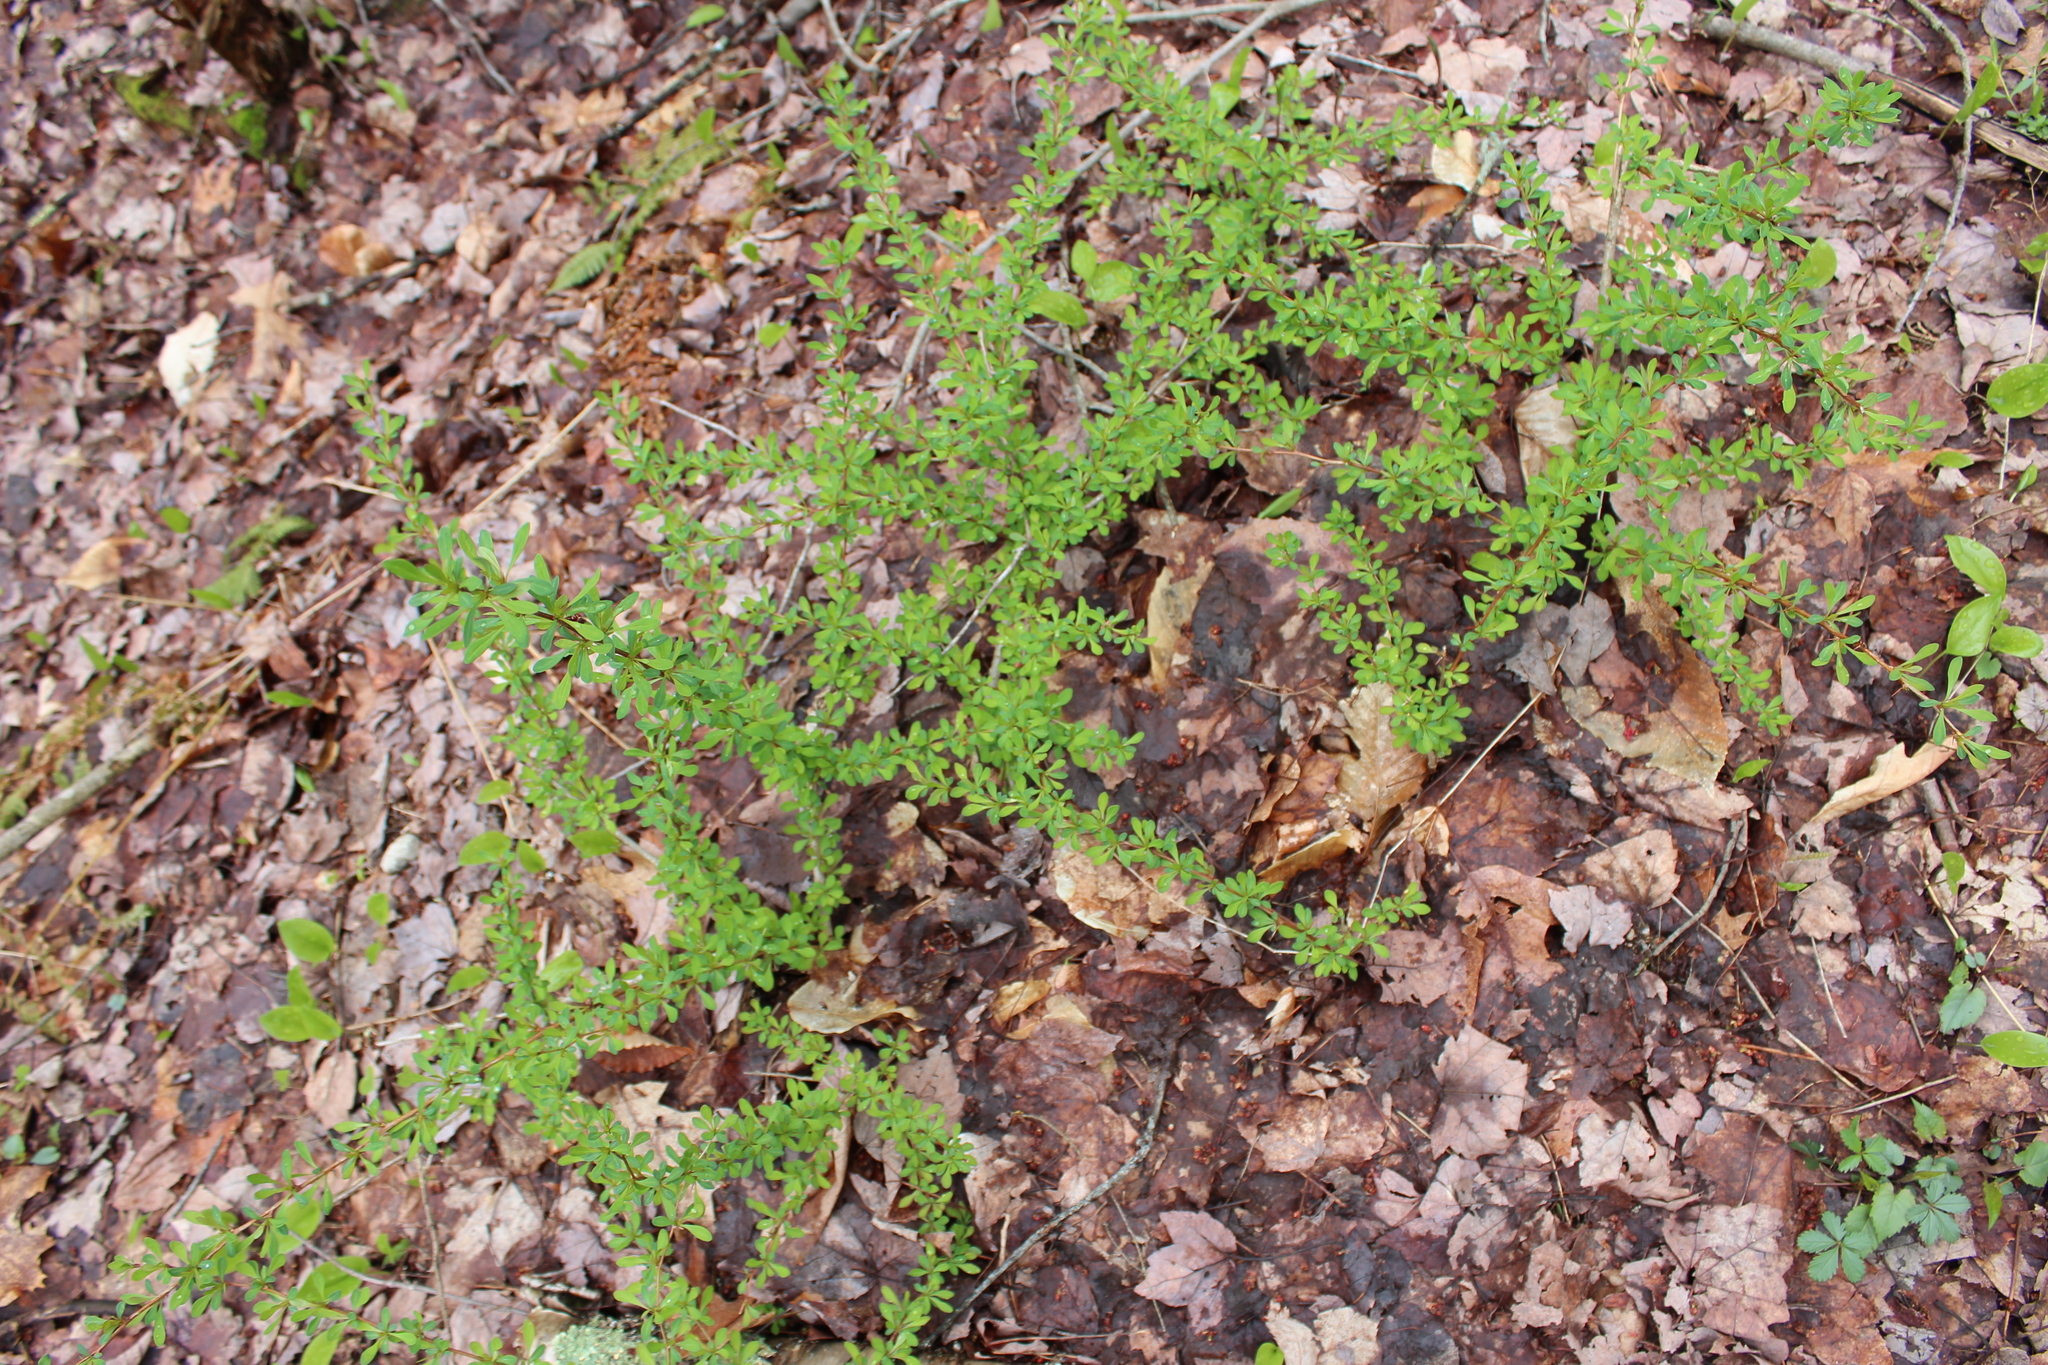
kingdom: Plantae
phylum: Tracheophyta
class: Magnoliopsida
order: Ranunculales
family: Berberidaceae
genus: Berberis
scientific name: Berberis thunbergii
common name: Japanese barberry
